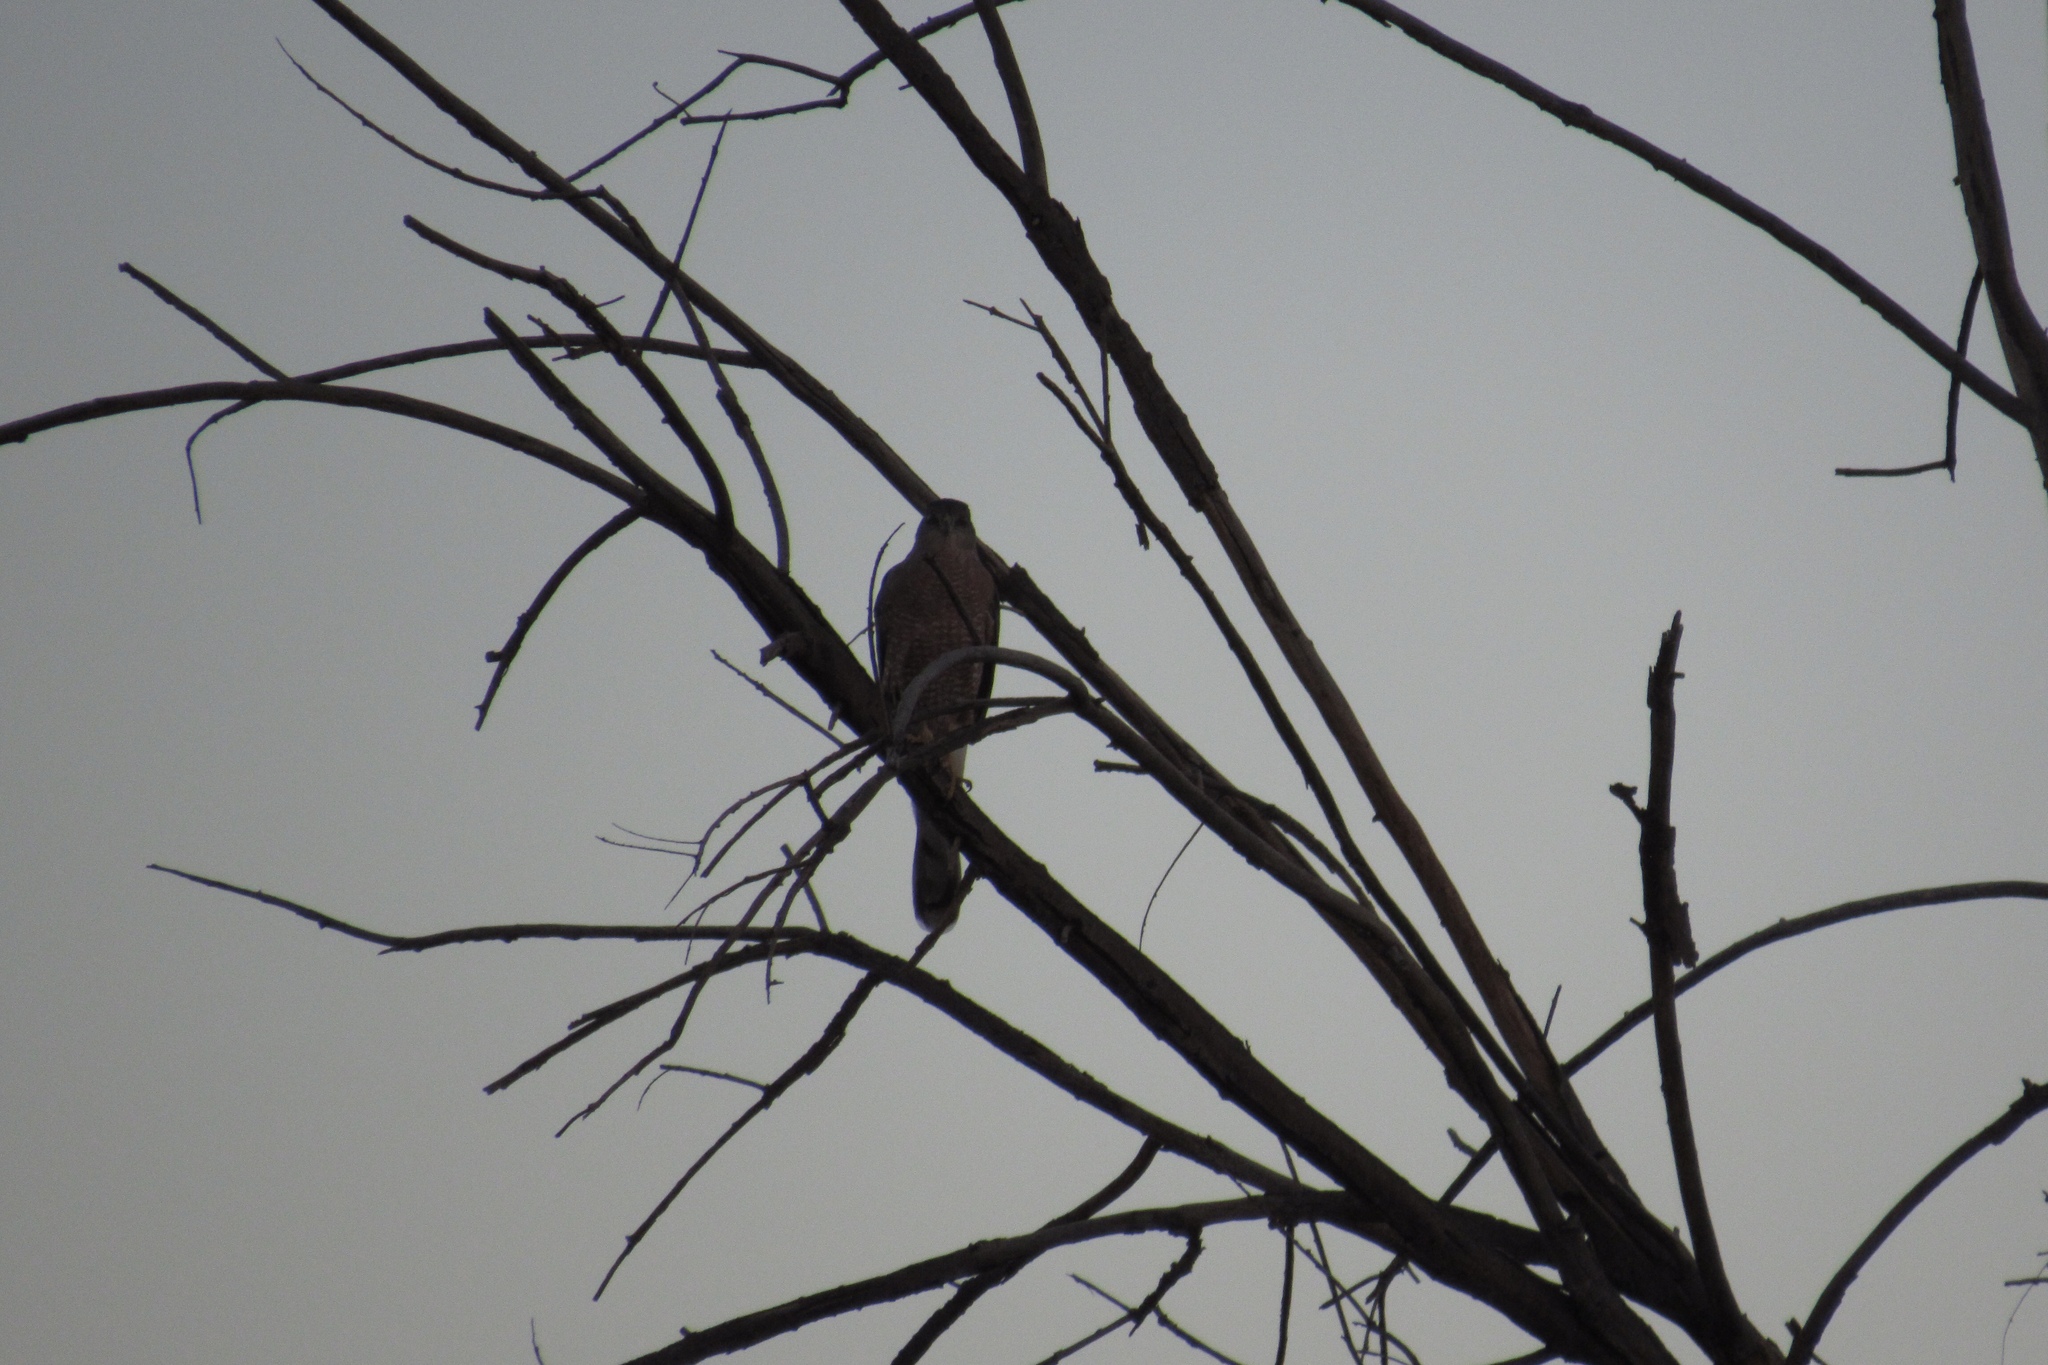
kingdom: Animalia
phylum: Chordata
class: Aves
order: Accipitriformes
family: Accipitridae
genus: Accipiter
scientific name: Accipiter cooperii
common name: Cooper's hawk
